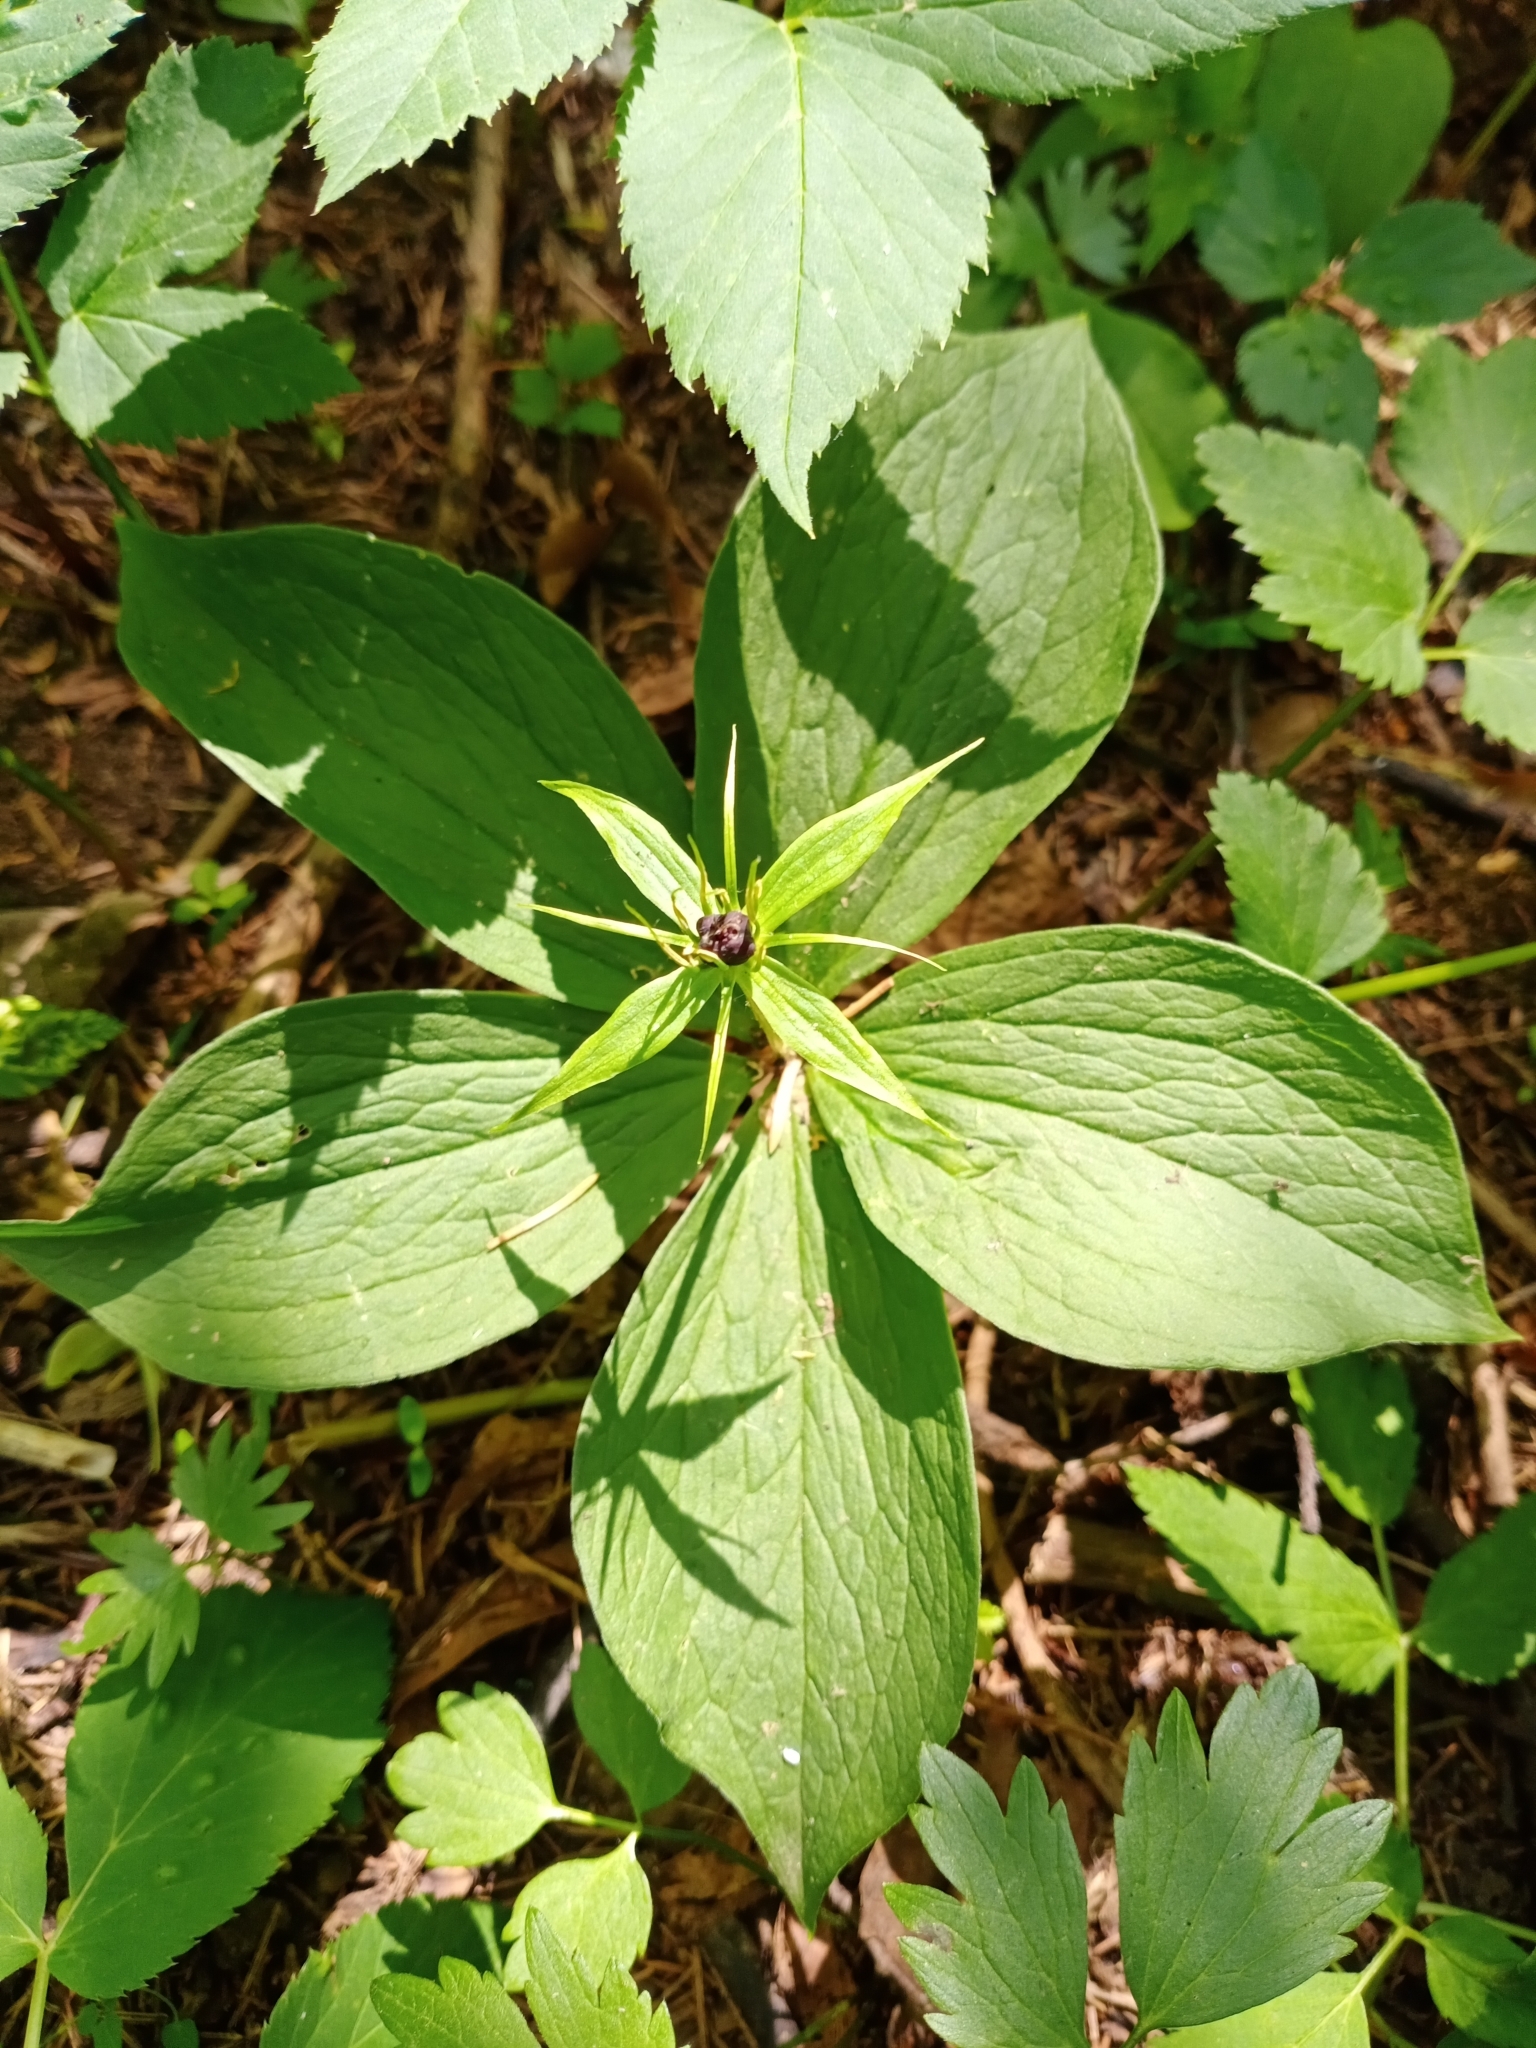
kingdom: Plantae
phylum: Tracheophyta
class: Liliopsida
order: Liliales
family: Melanthiaceae
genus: Paris
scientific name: Paris quadrifolia
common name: Herb-paris
